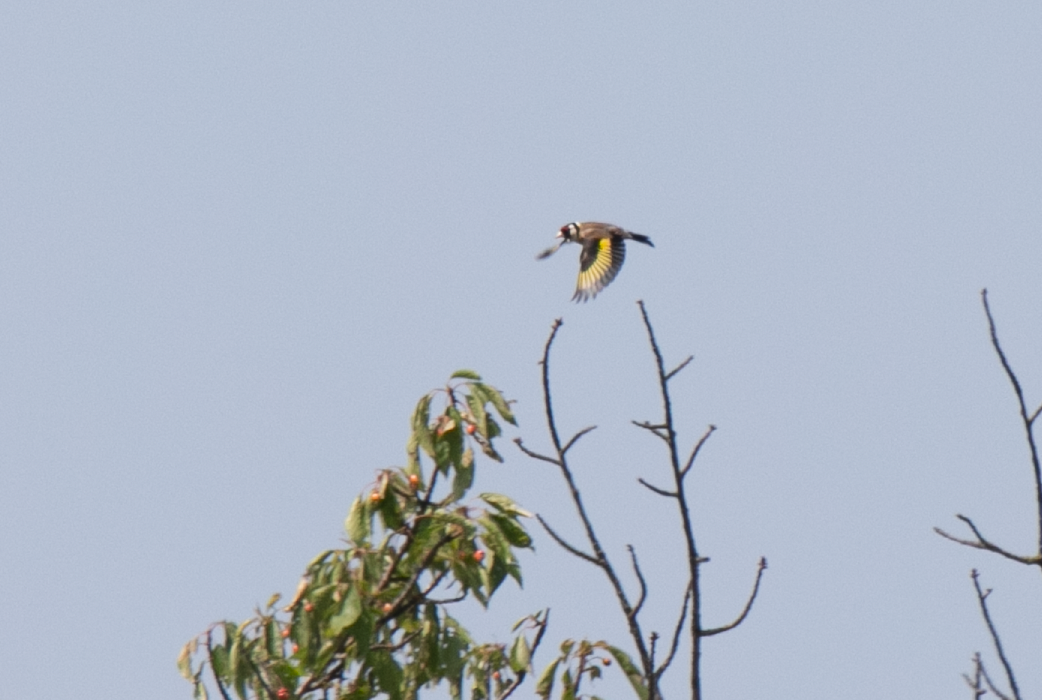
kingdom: Animalia
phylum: Chordata
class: Aves
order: Passeriformes
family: Fringillidae
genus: Carduelis
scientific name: Carduelis carduelis
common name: European goldfinch
